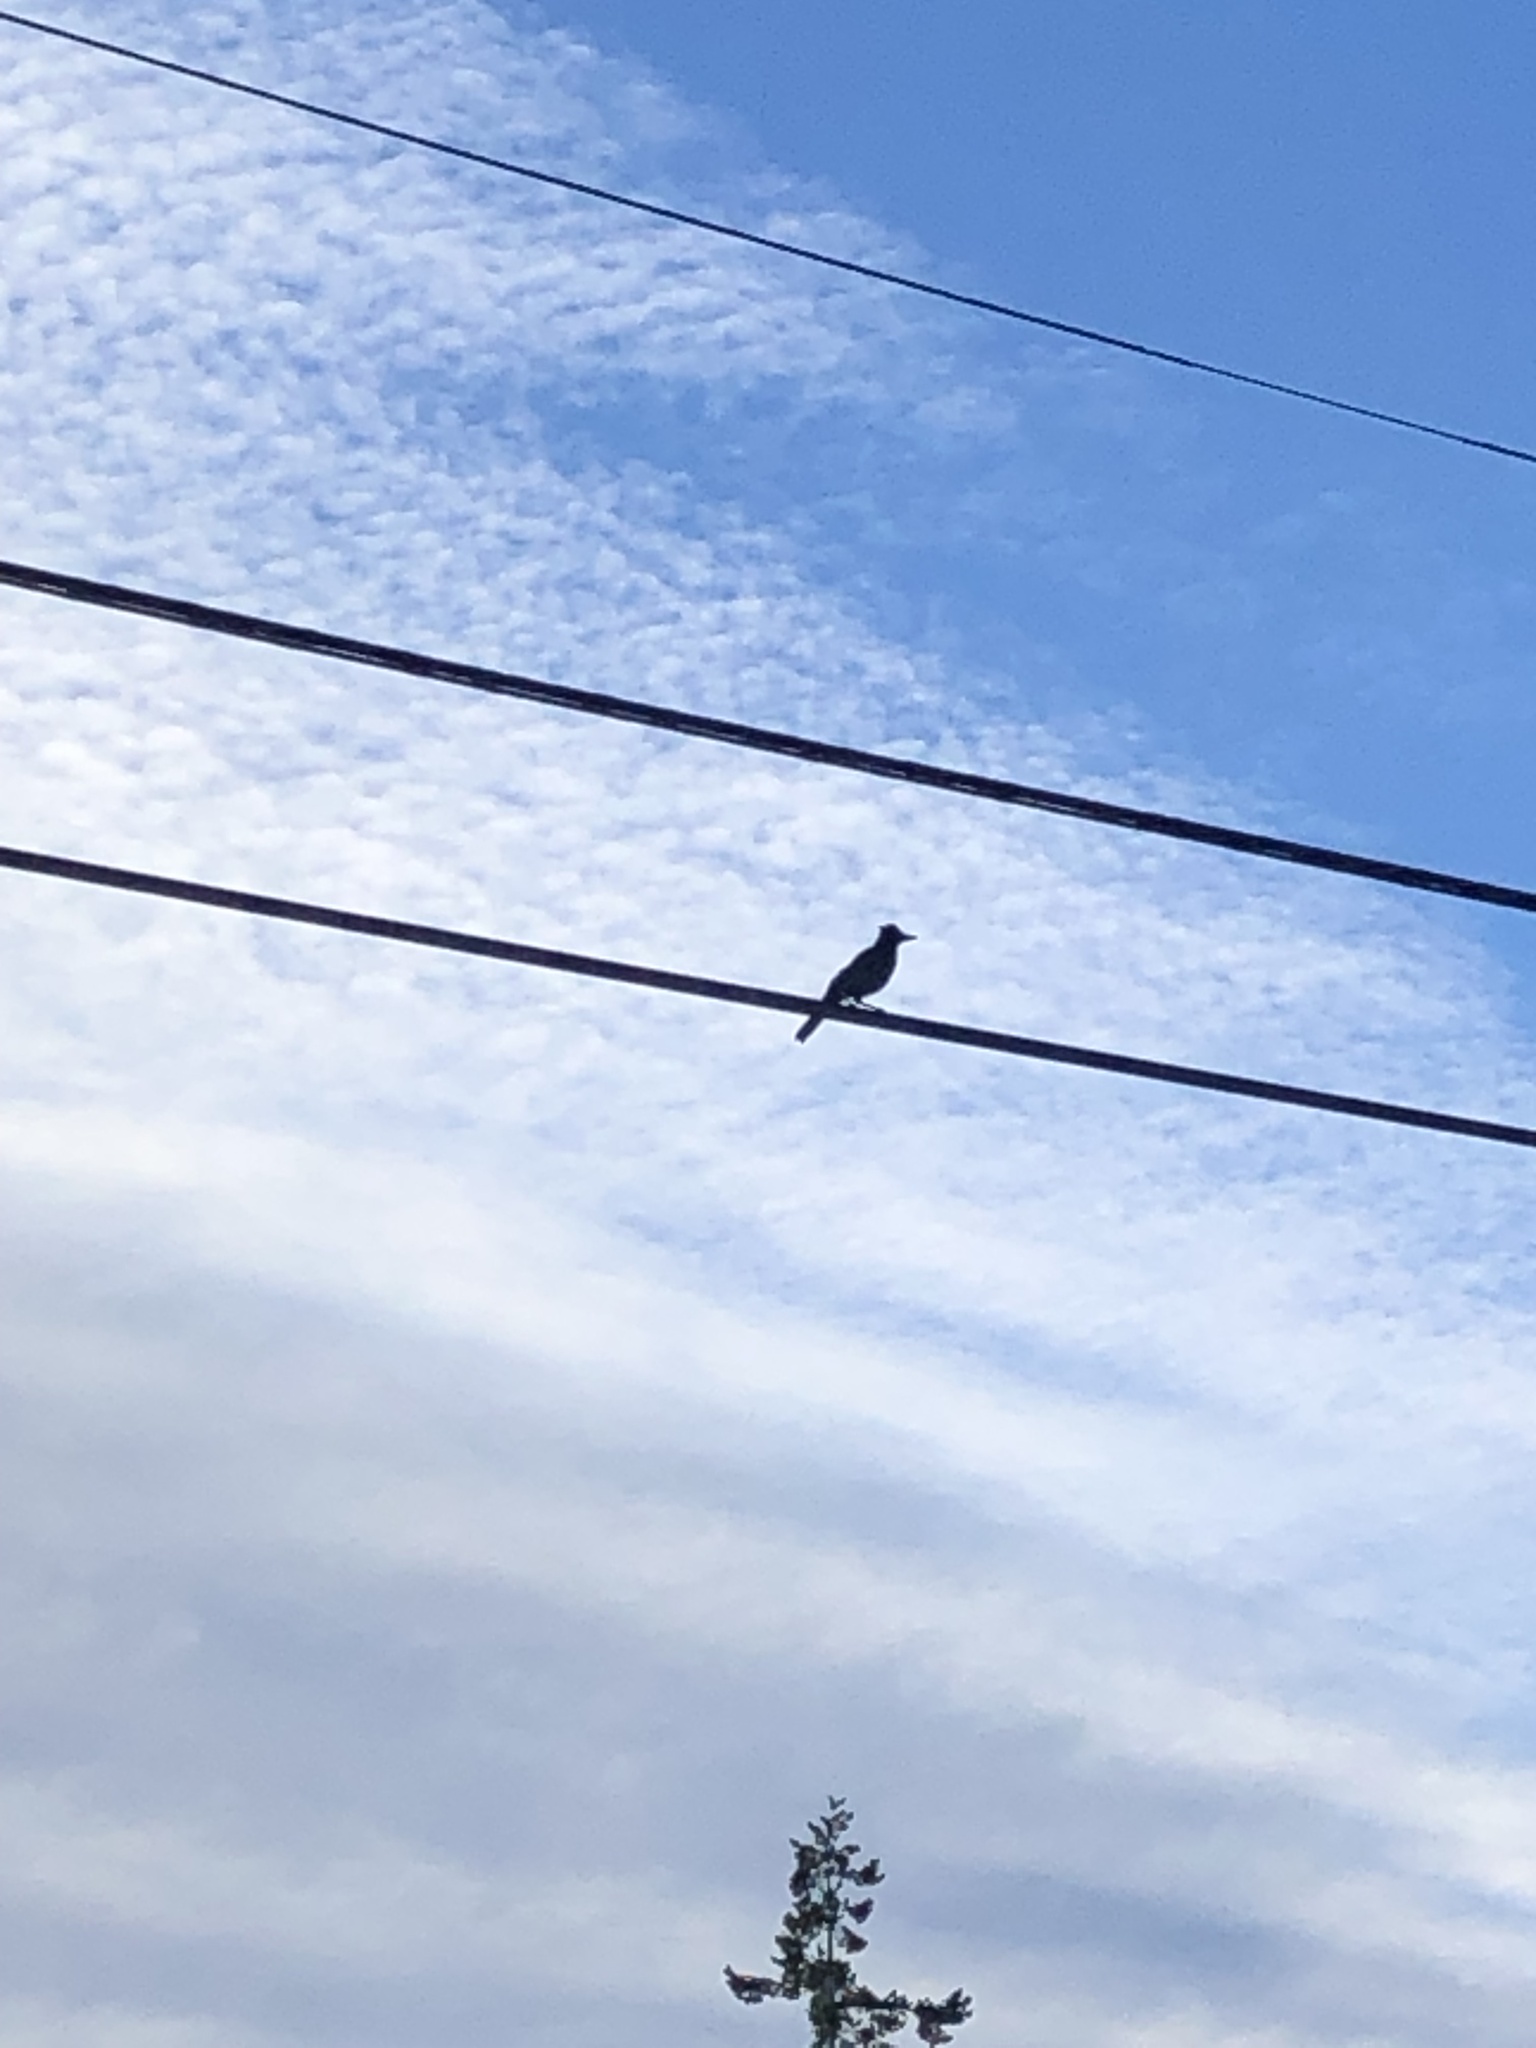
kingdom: Animalia
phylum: Chordata
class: Aves
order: Passeriformes
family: Corvidae
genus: Cyanocitta
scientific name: Cyanocitta stelleri
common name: Steller's jay
